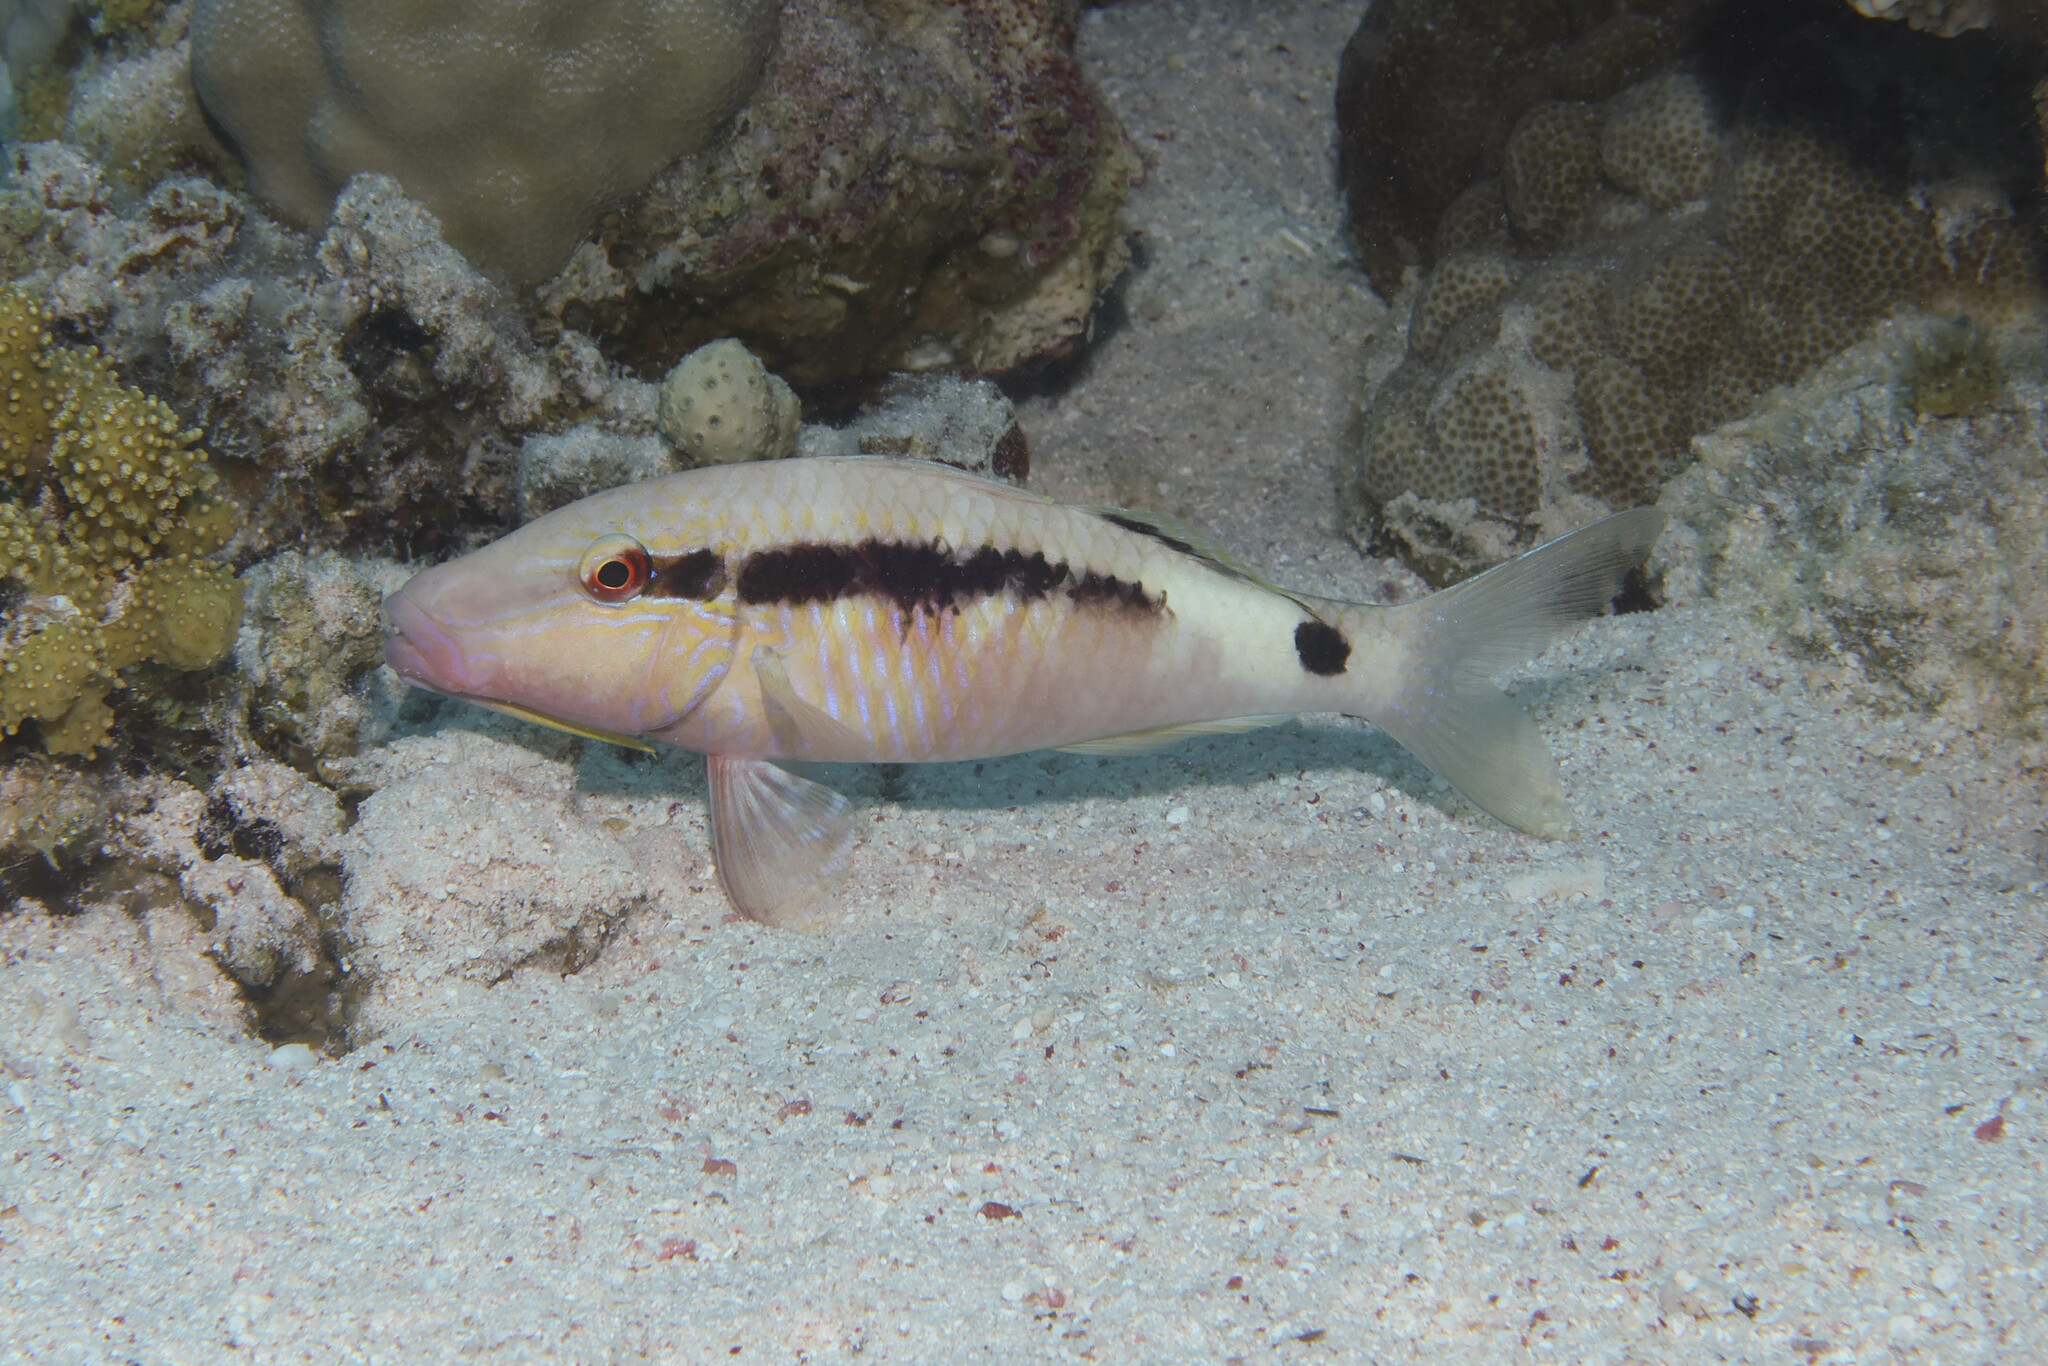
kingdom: Animalia
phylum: Chordata
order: Perciformes
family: Mullidae
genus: Parupeneus
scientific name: Parupeneus macronemus
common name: Long-barbel goatfish
